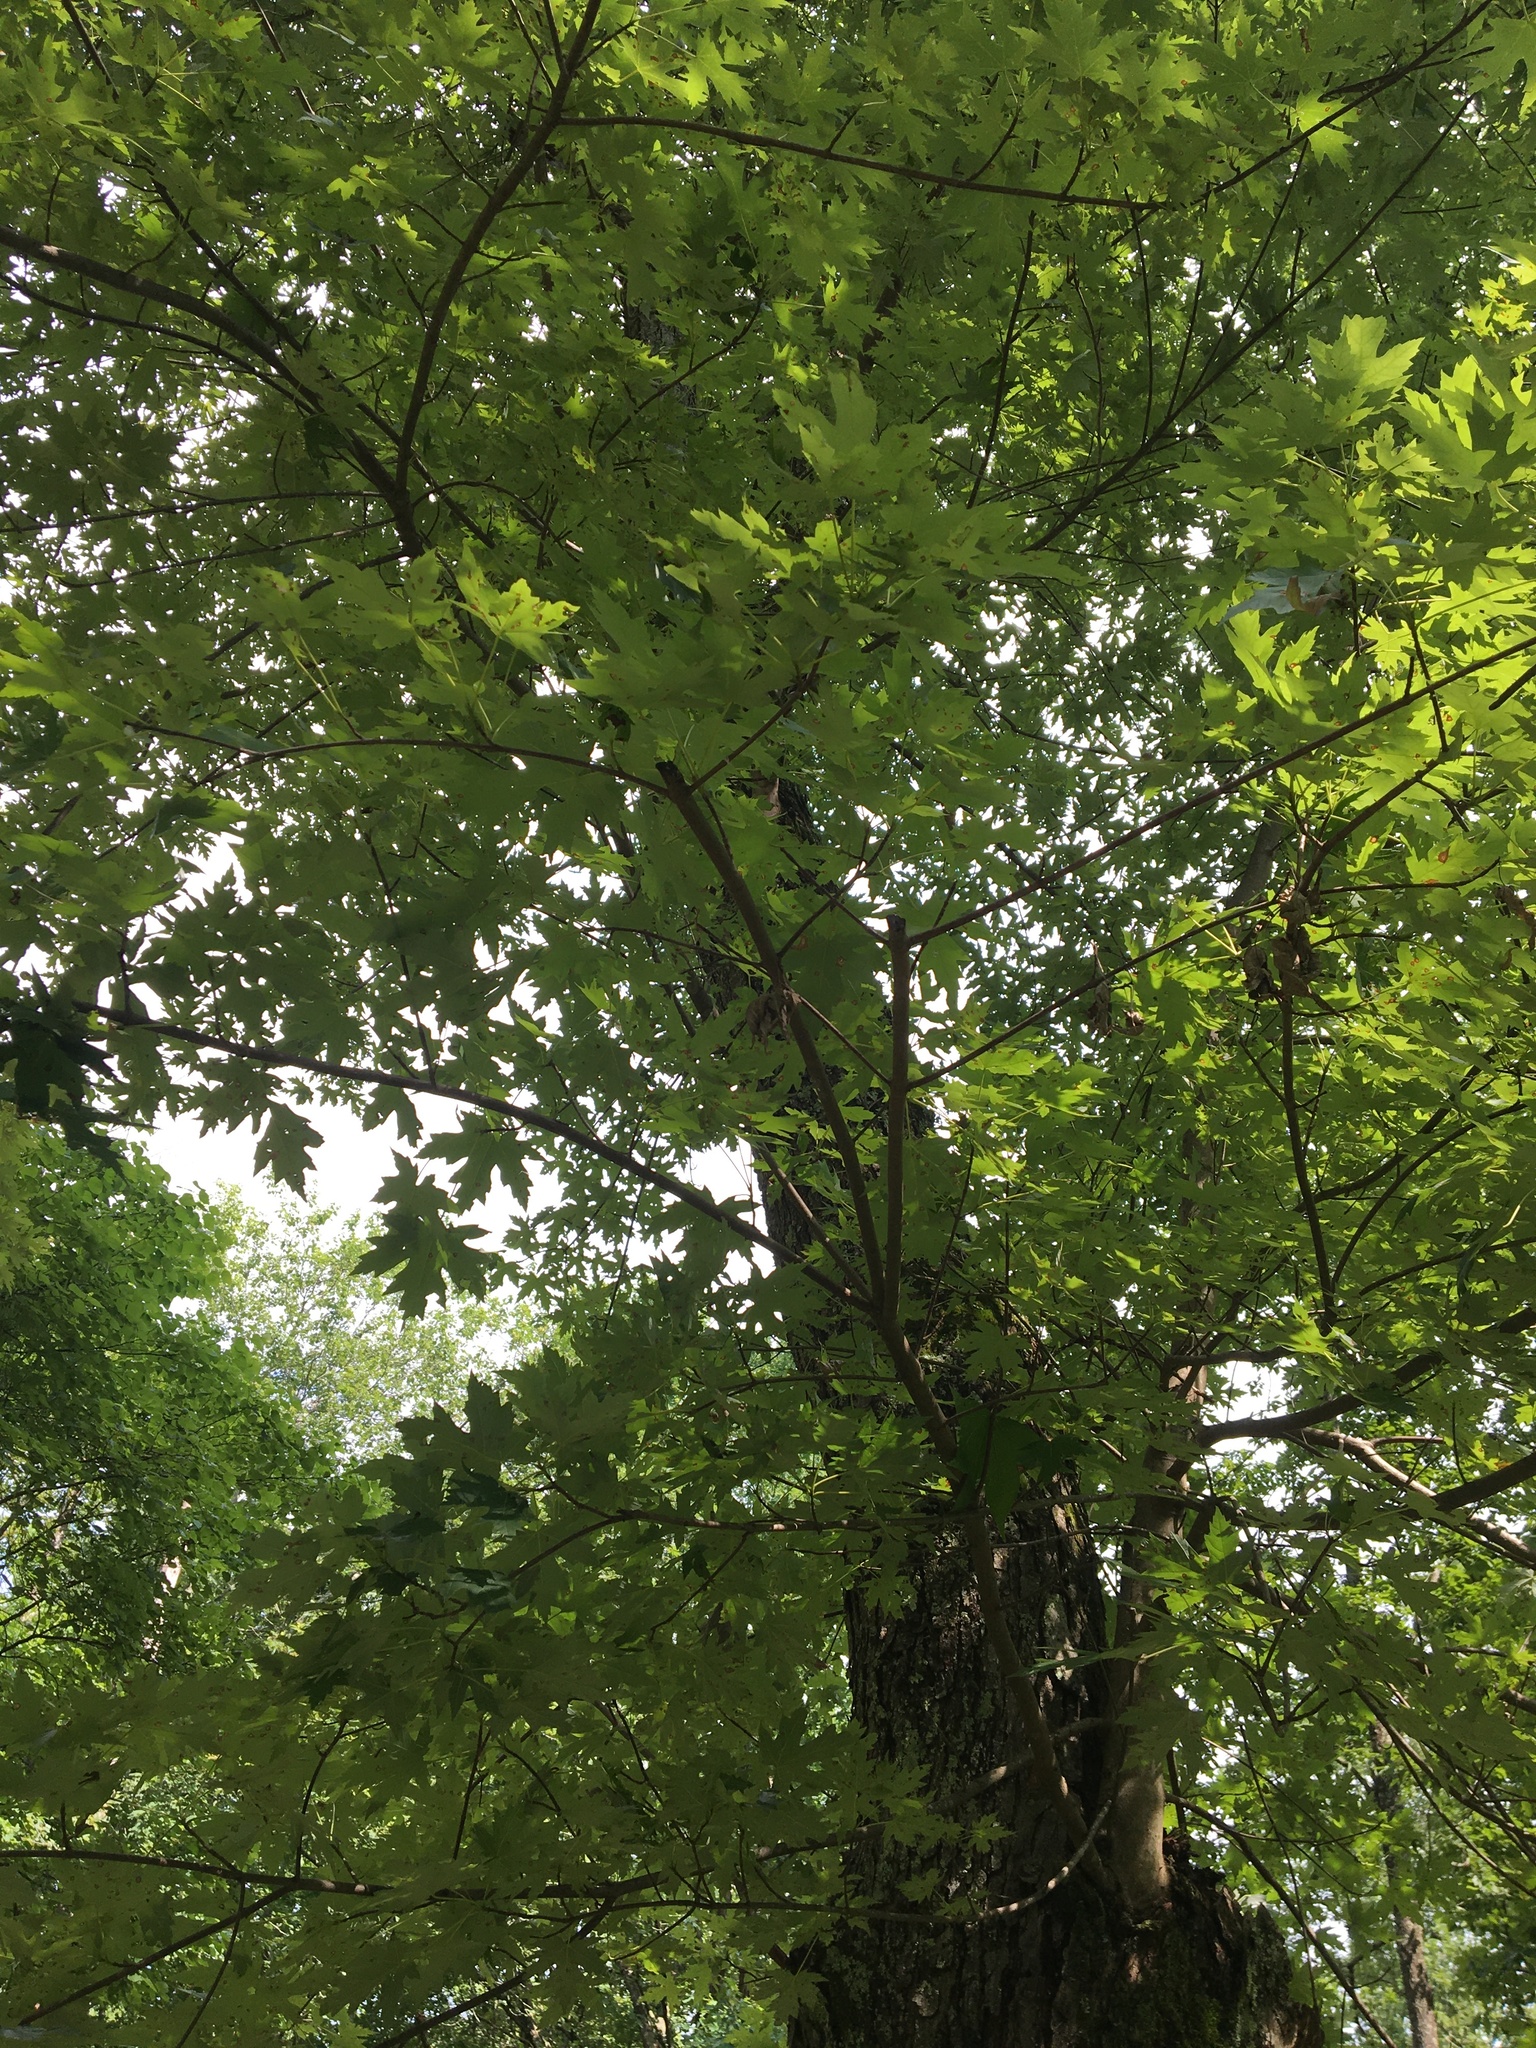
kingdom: Plantae
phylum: Tracheophyta
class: Magnoliopsida
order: Sapindales
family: Sapindaceae
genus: Acer
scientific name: Acer saccharinum
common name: Silver maple
